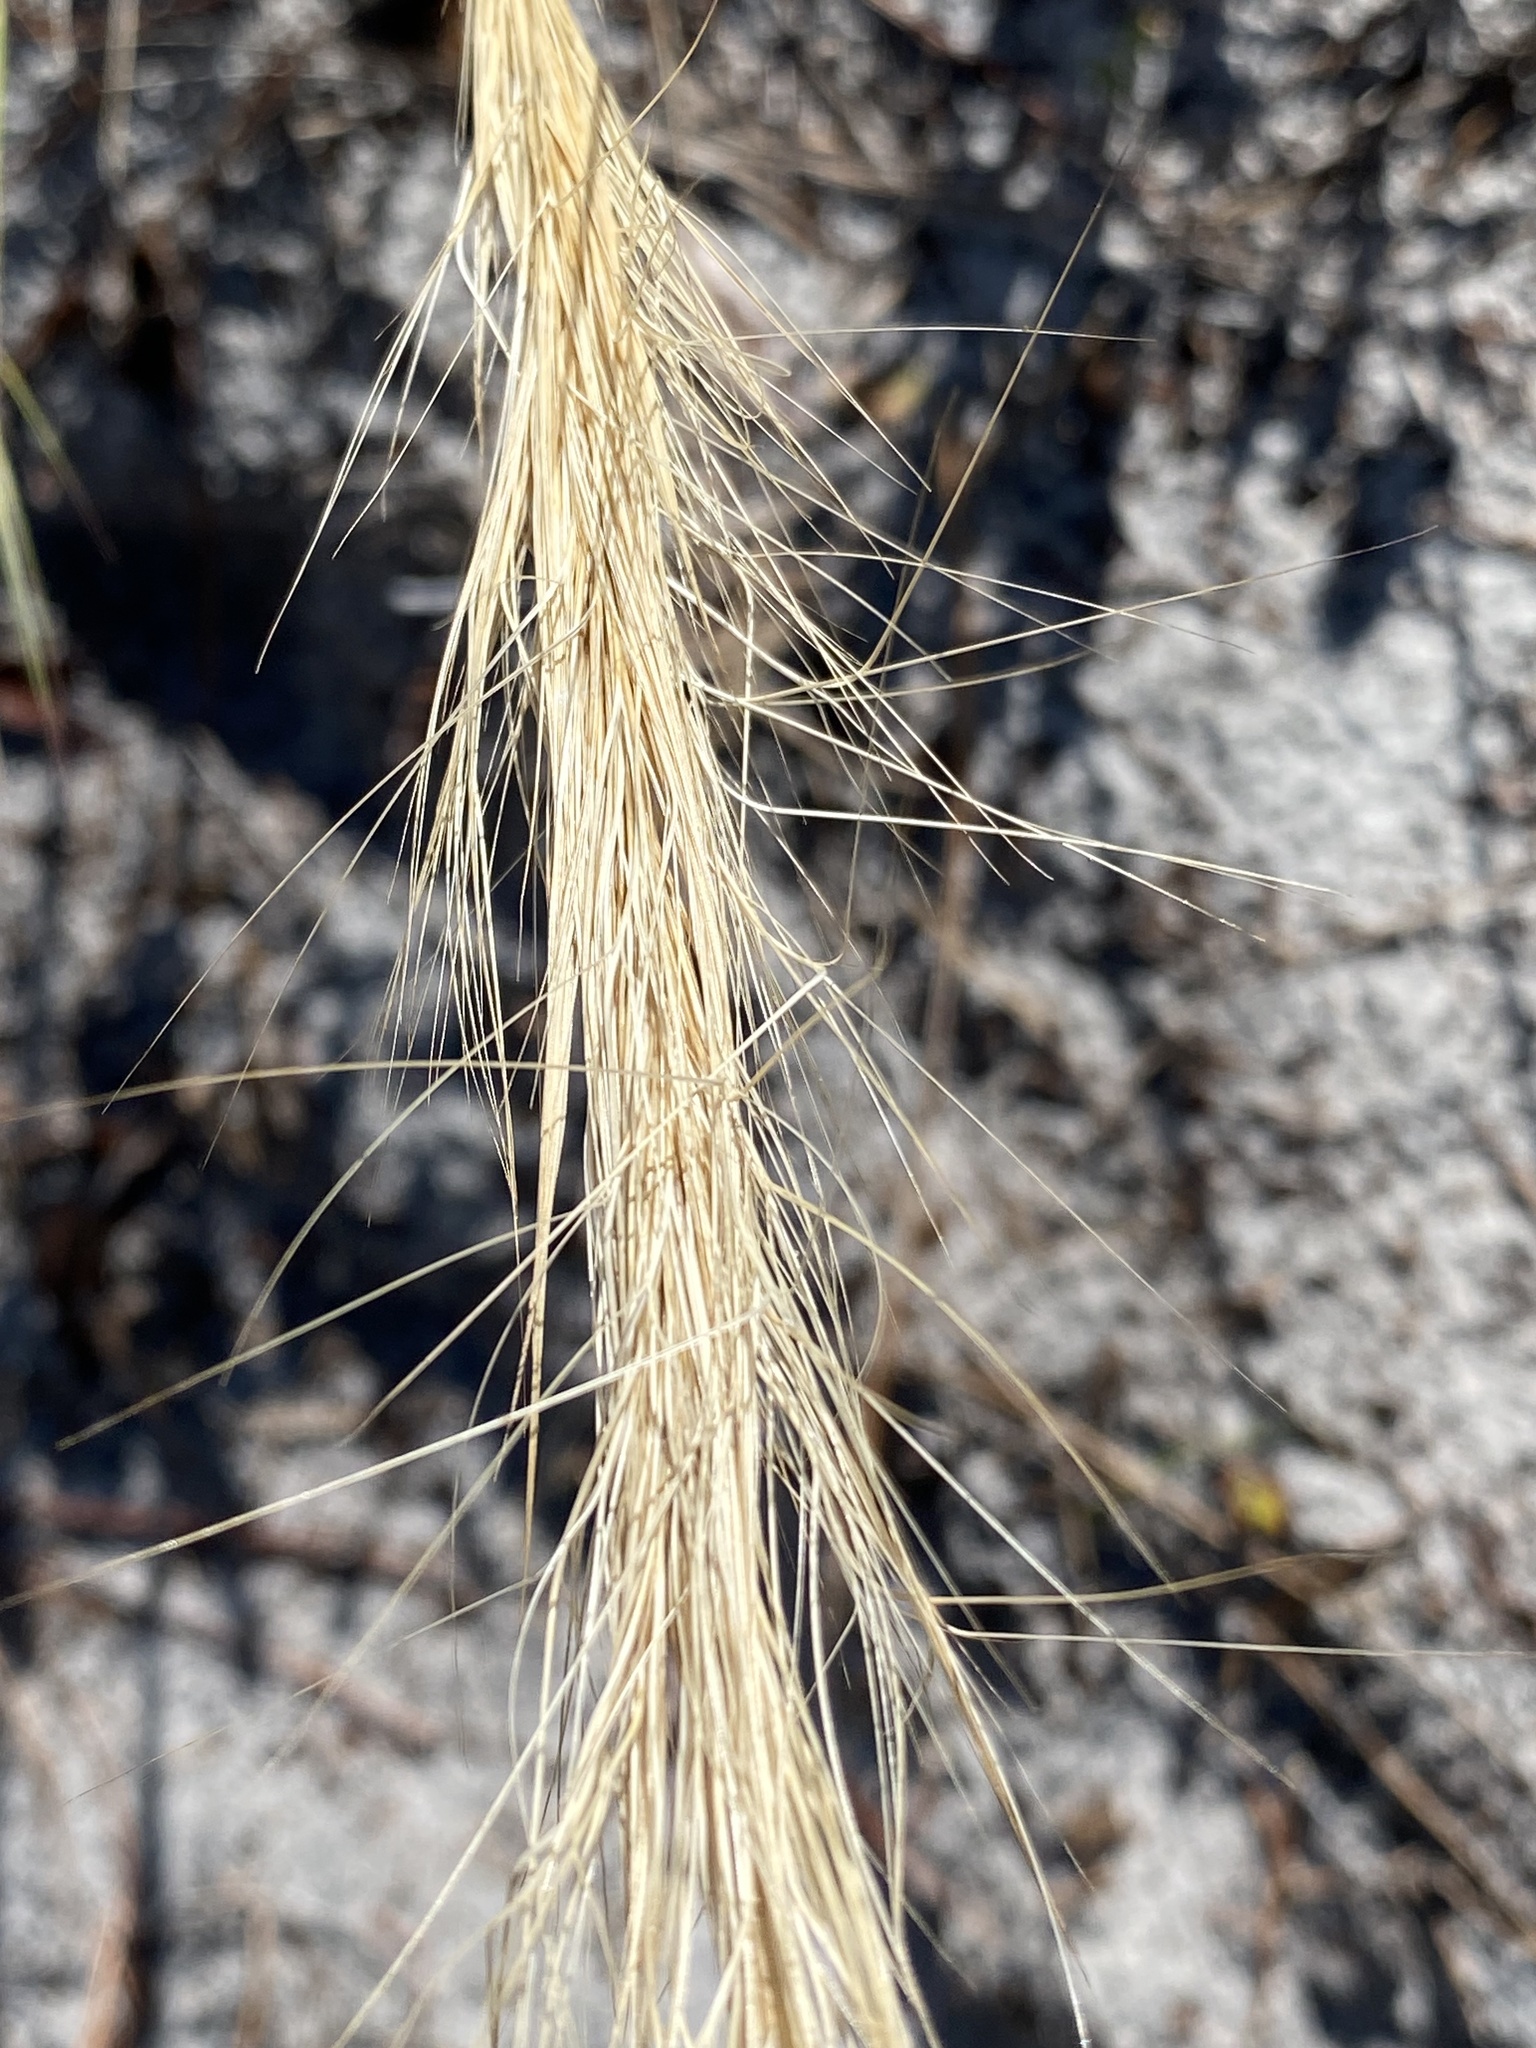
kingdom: Plantae
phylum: Tracheophyta
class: Liliopsida
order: Poales
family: Poaceae
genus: Aristida
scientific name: Aristida spiciformis
